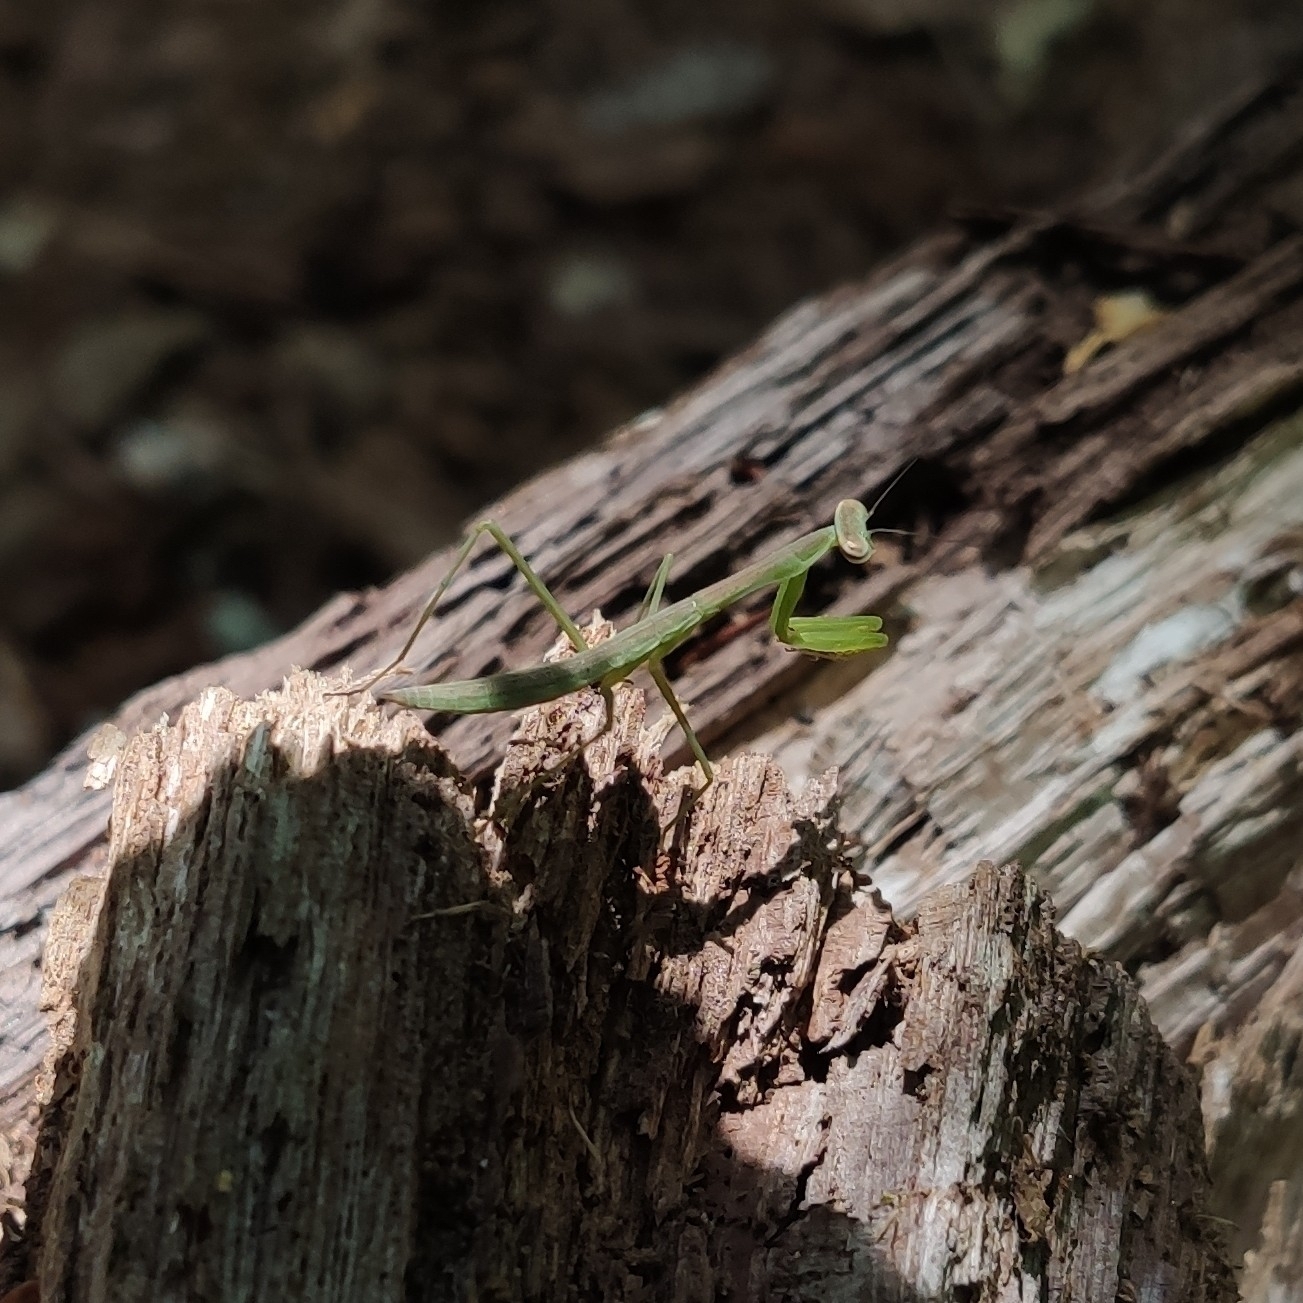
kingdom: Animalia
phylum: Arthropoda
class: Insecta
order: Mantodea
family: Mantidae
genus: Tenodera
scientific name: Tenodera sinensis
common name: Chinese mantis
